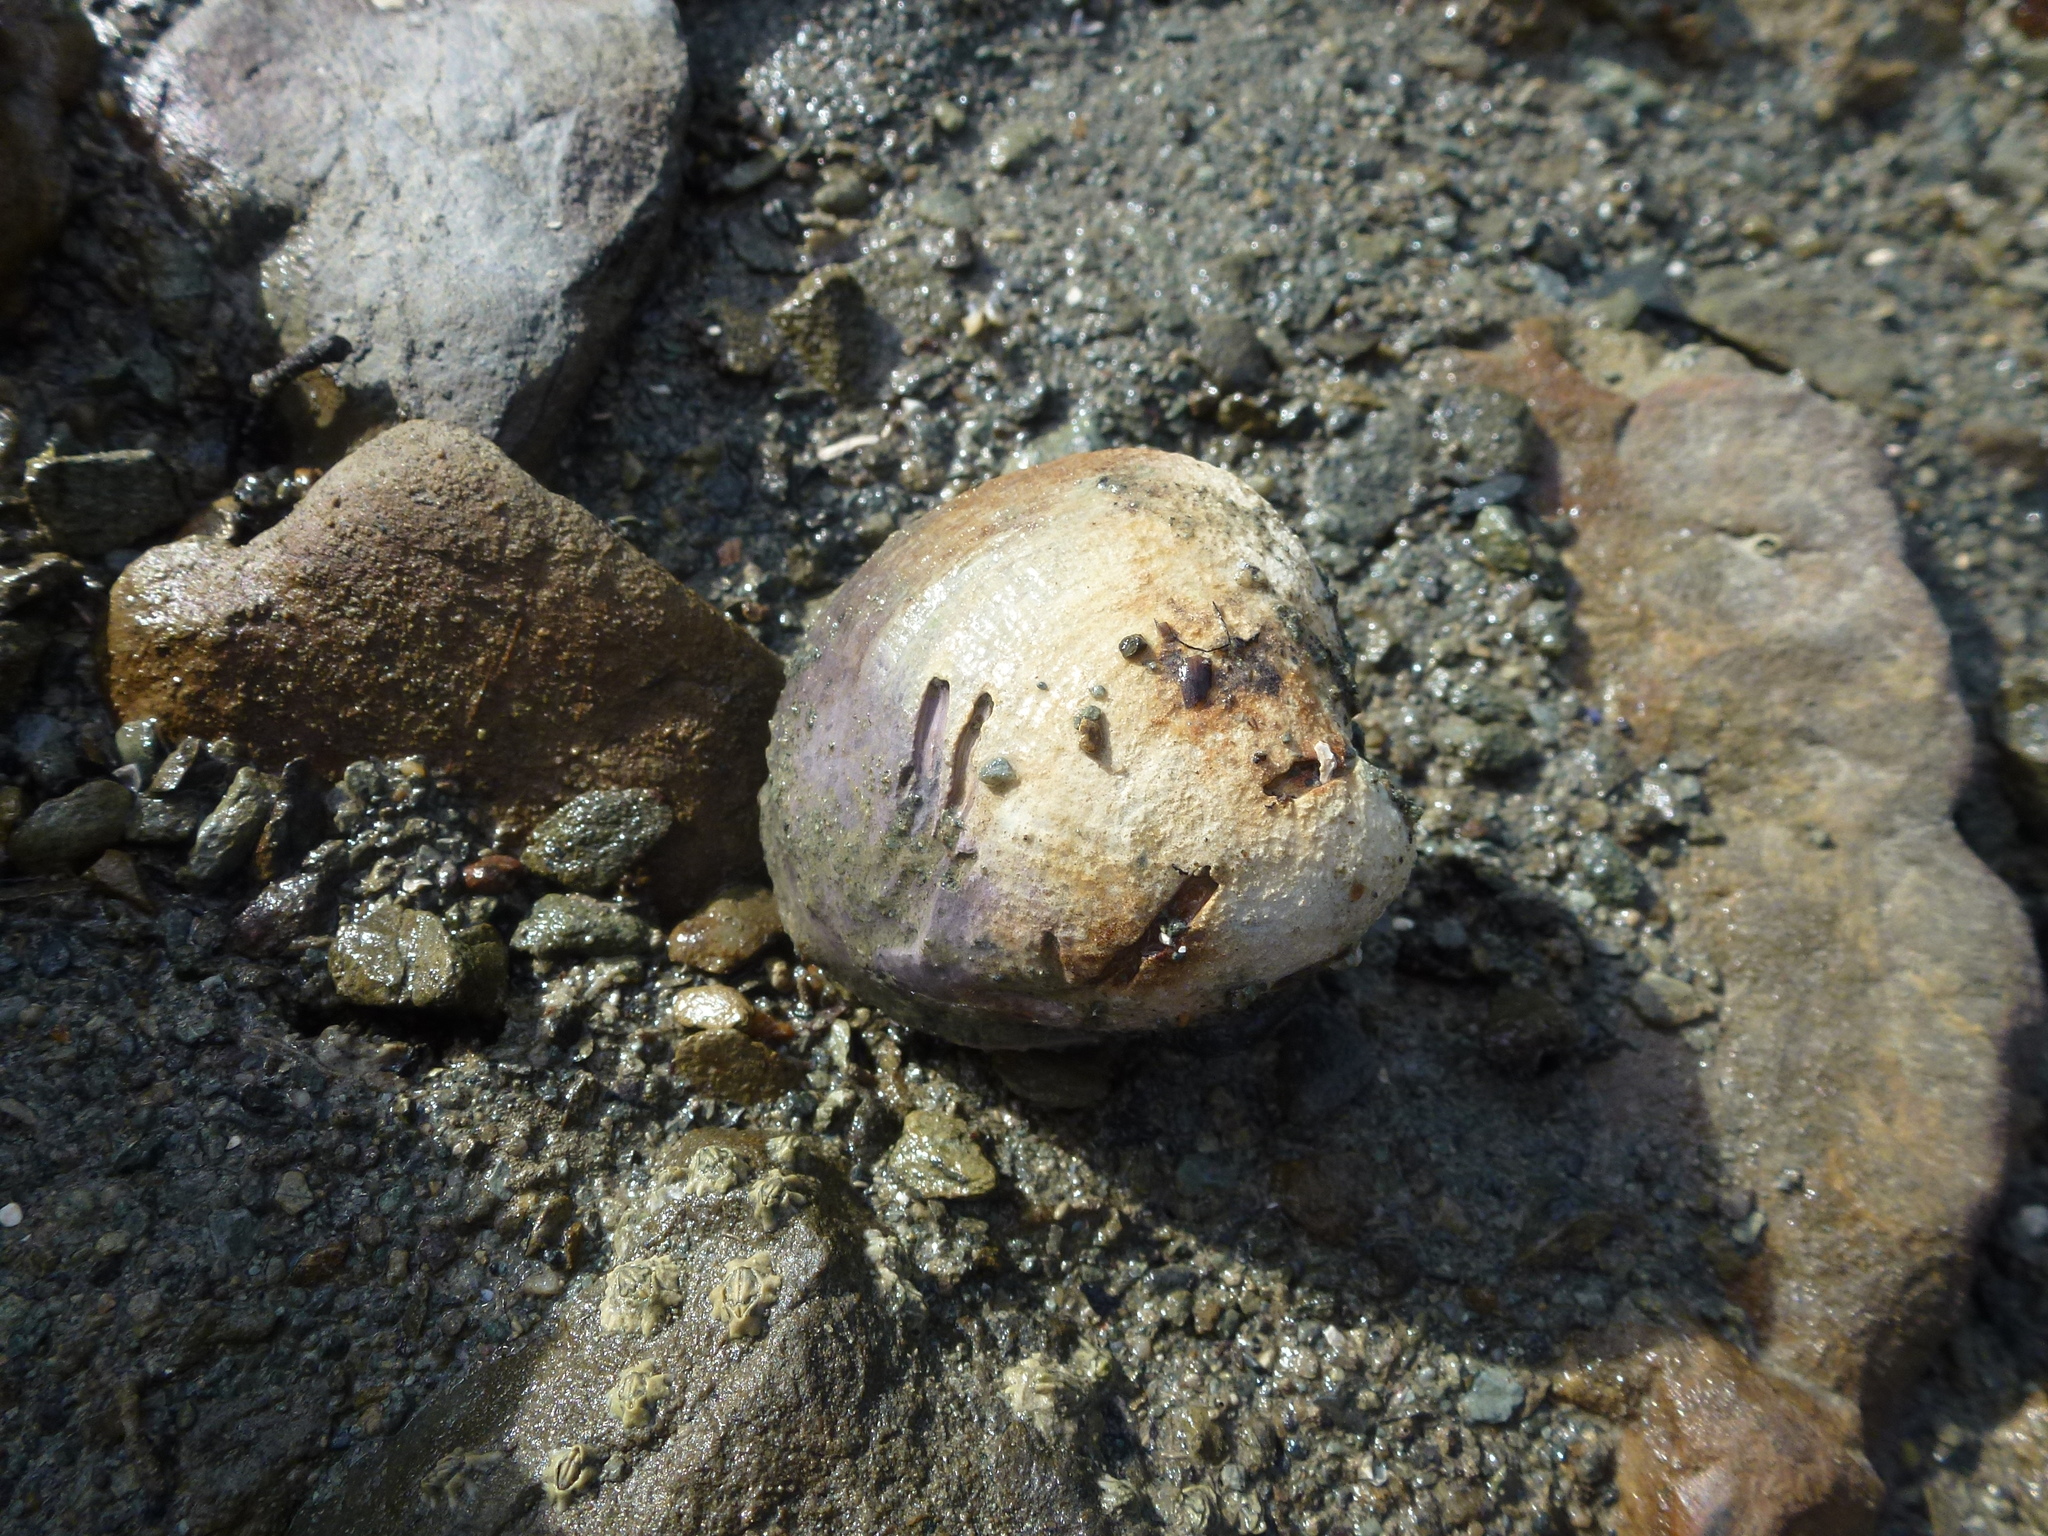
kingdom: Animalia
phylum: Mollusca
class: Bivalvia
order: Venerida
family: Veneridae
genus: Austrovenus
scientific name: Austrovenus stutchburyi
